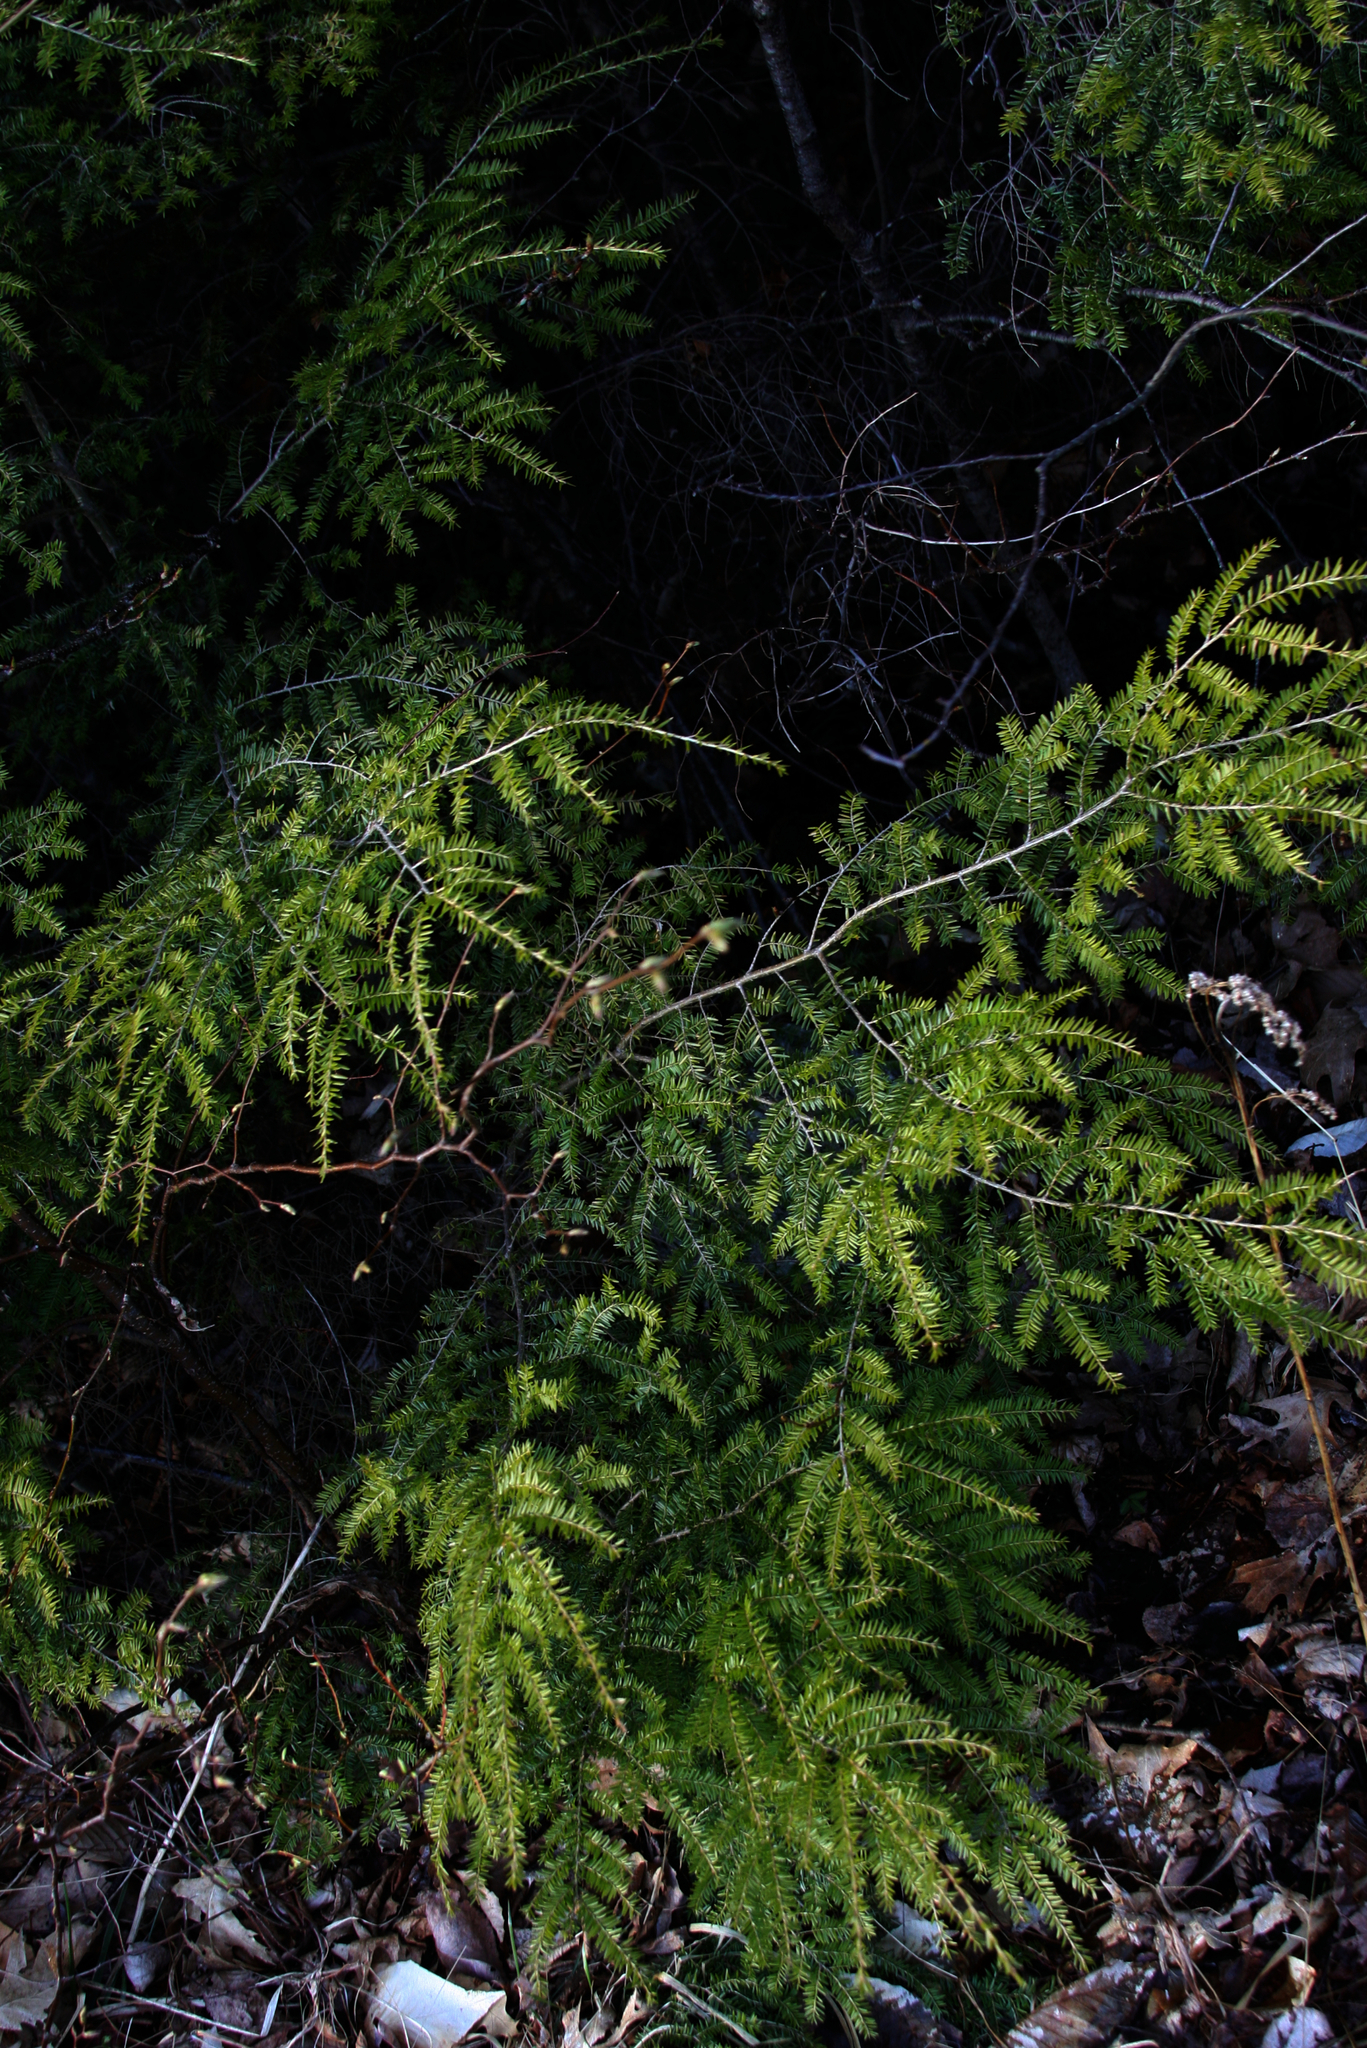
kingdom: Plantae
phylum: Tracheophyta
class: Pinopsida
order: Pinales
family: Pinaceae
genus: Tsuga
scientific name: Tsuga canadensis
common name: Eastern hemlock
